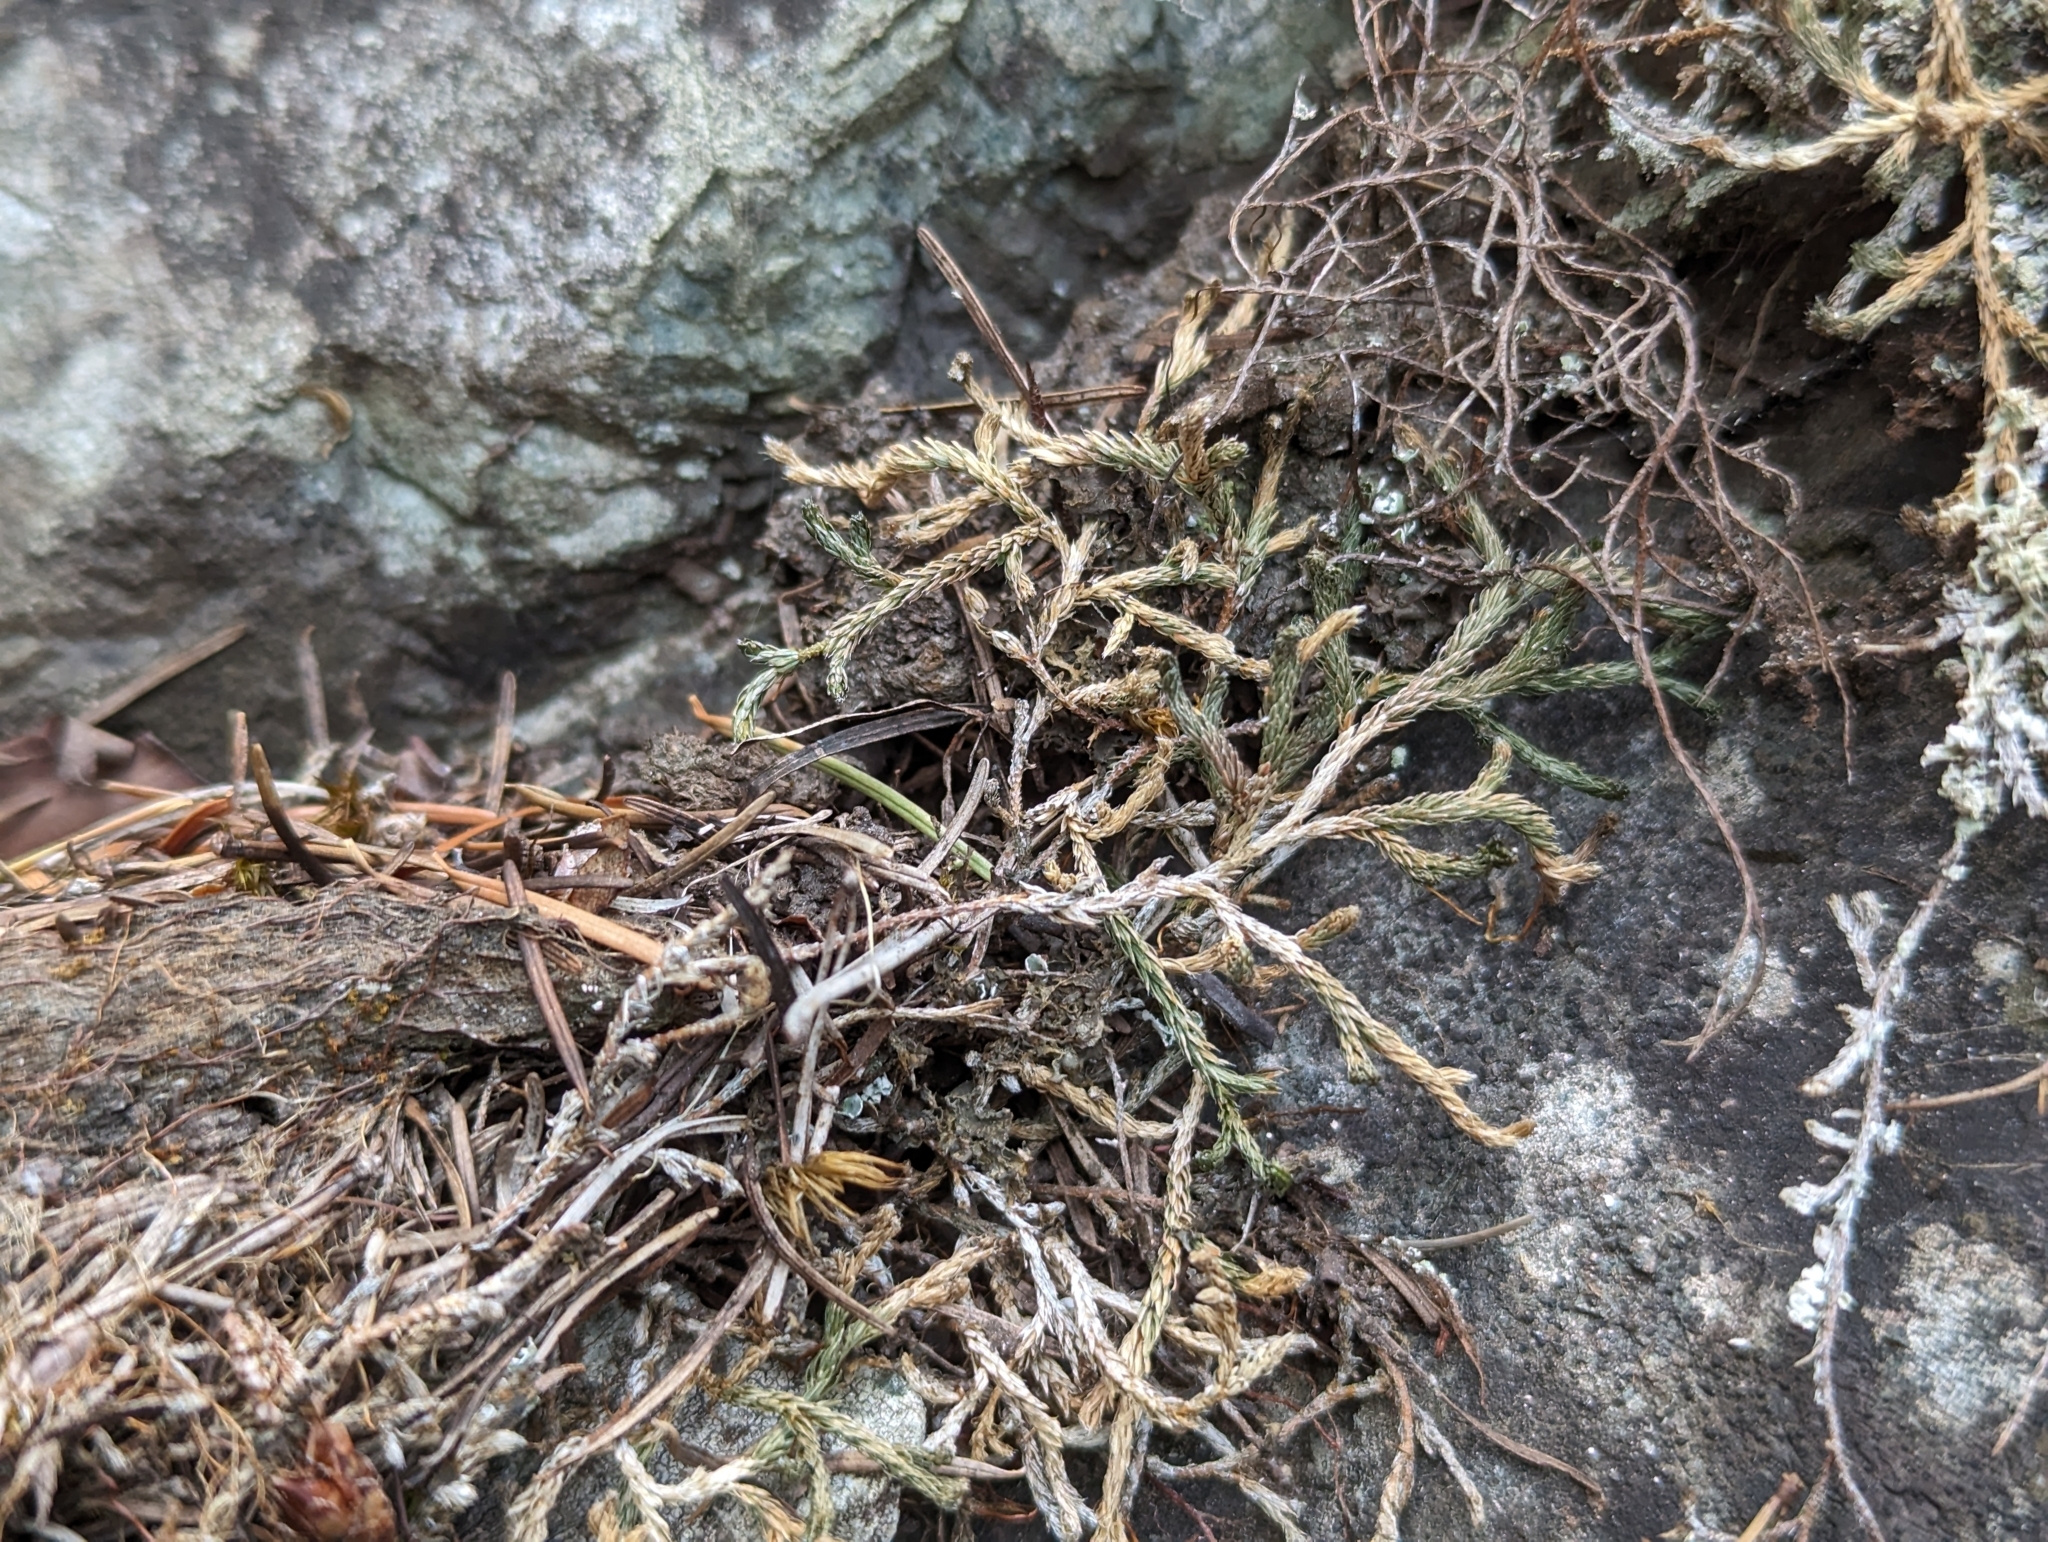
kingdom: Plantae
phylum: Tracheophyta
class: Lycopodiopsida
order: Selaginellales
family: Selaginellaceae
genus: Selaginella
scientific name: Selaginella wallacei
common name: Wallace's selaginella
